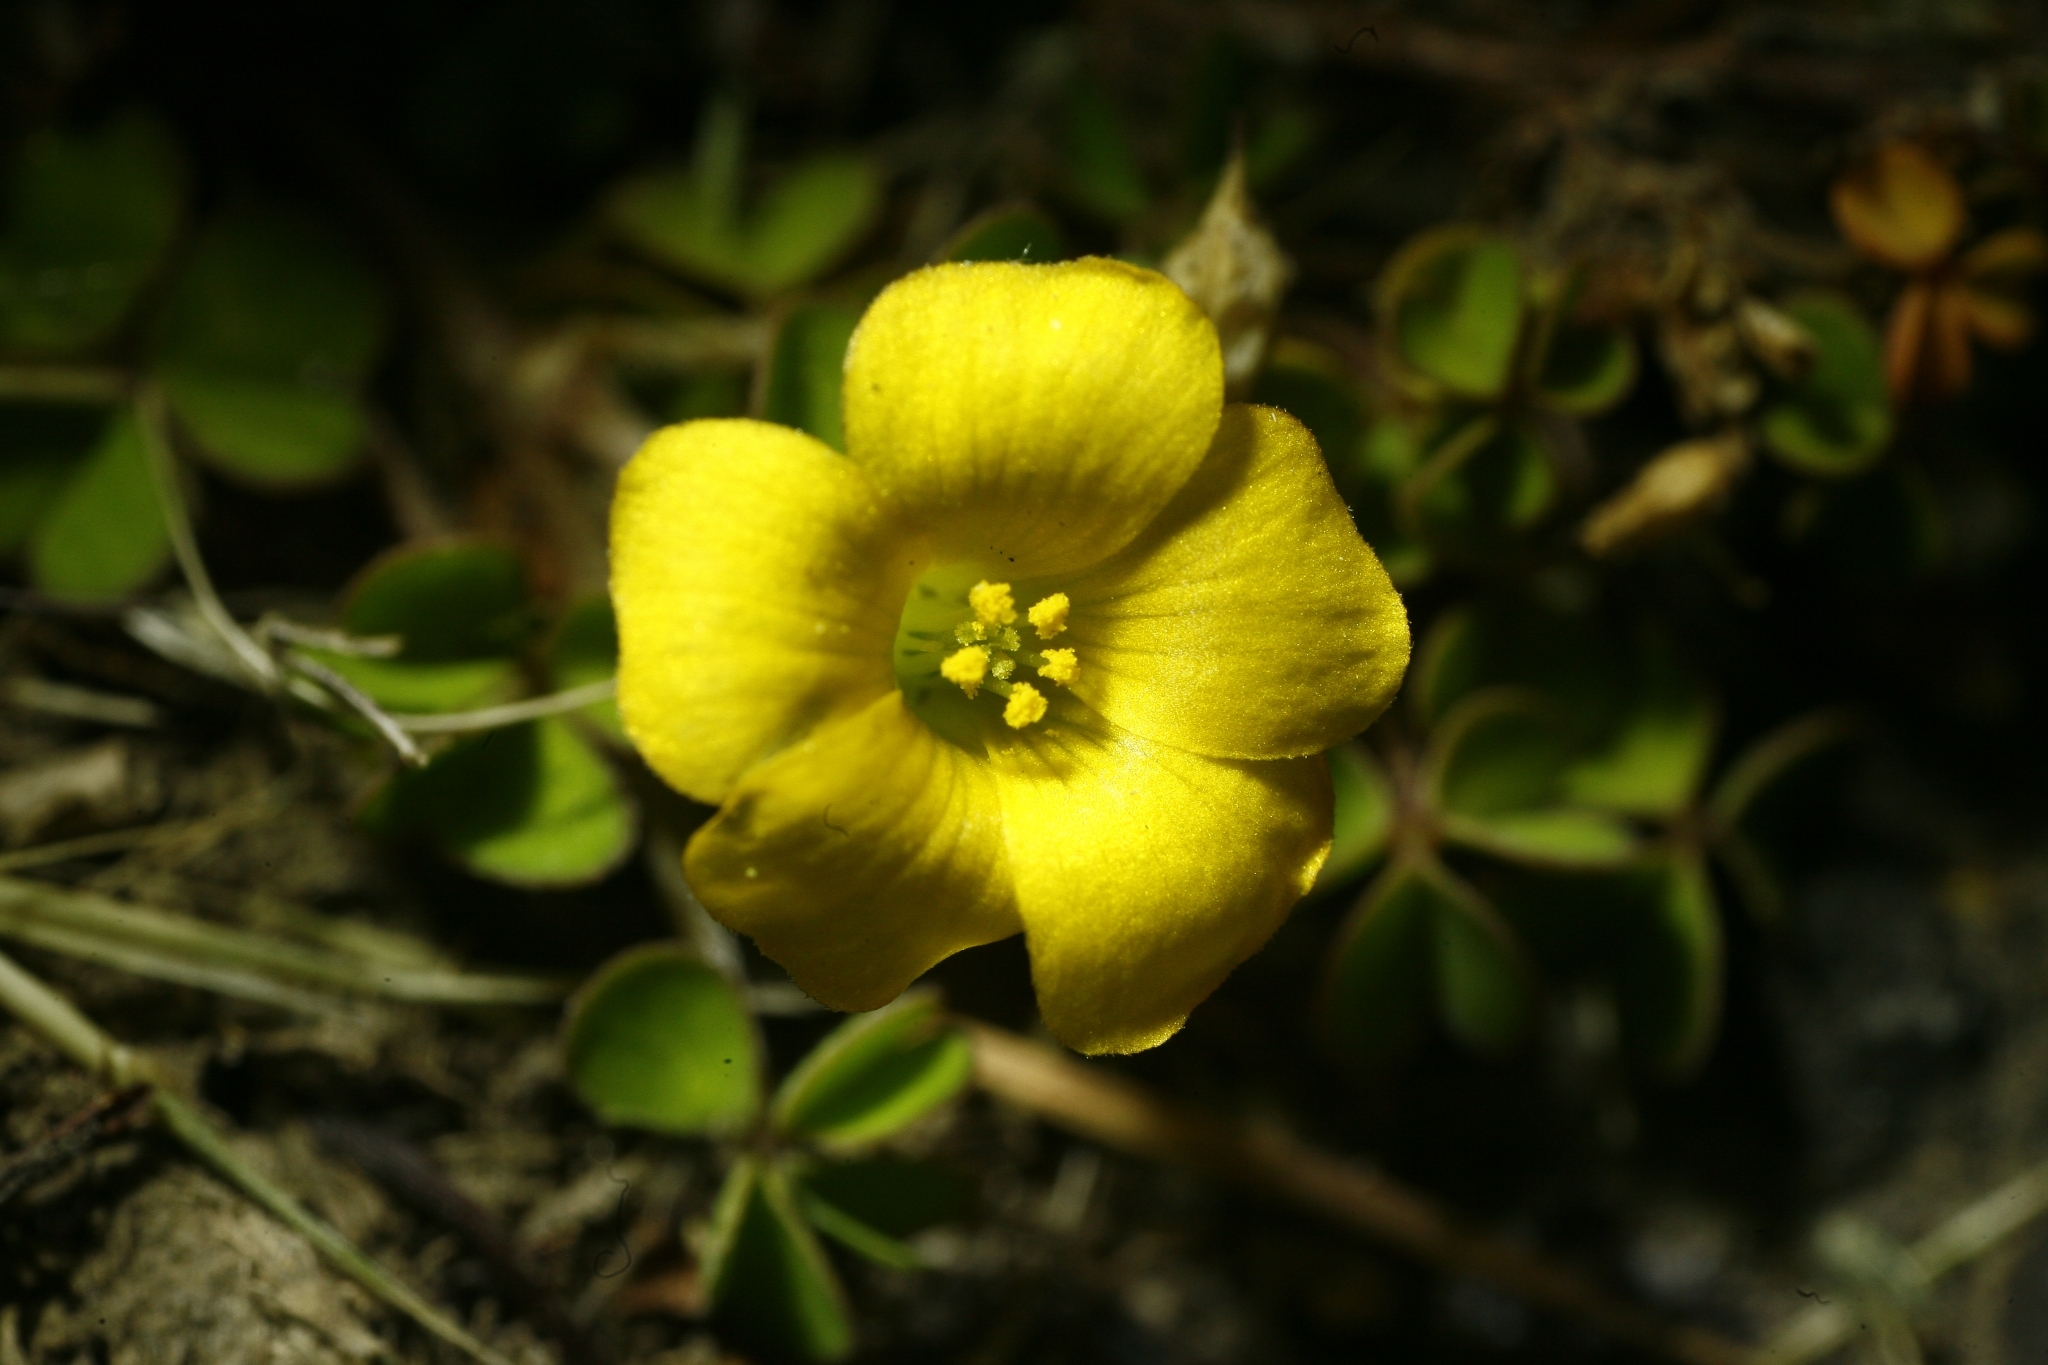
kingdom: Plantae
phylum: Tracheophyta
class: Magnoliopsida
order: Oxalidales
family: Oxalidaceae
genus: Oxalis
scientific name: Oxalis exilis
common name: Least yellow-sorrel
